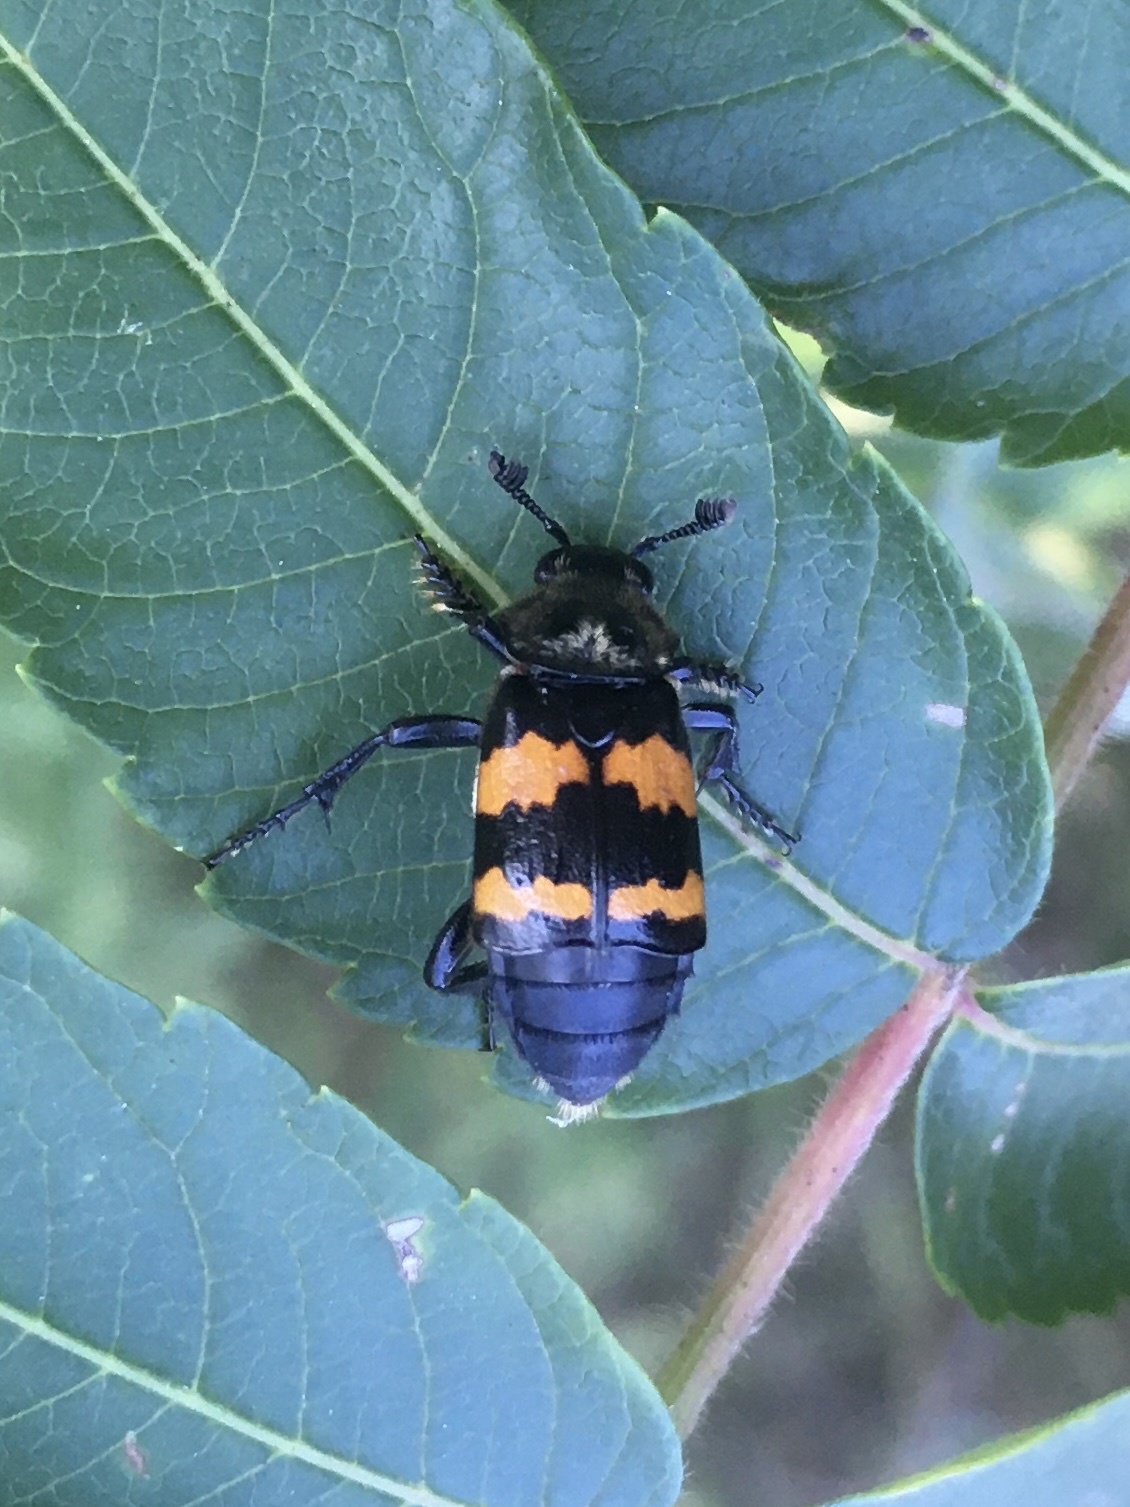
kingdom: Animalia
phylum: Arthropoda
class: Insecta
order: Coleoptera
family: Staphylinidae
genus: Nicrophorus
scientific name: Nicrophorus tomentosus
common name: Tomentose burying beetle
